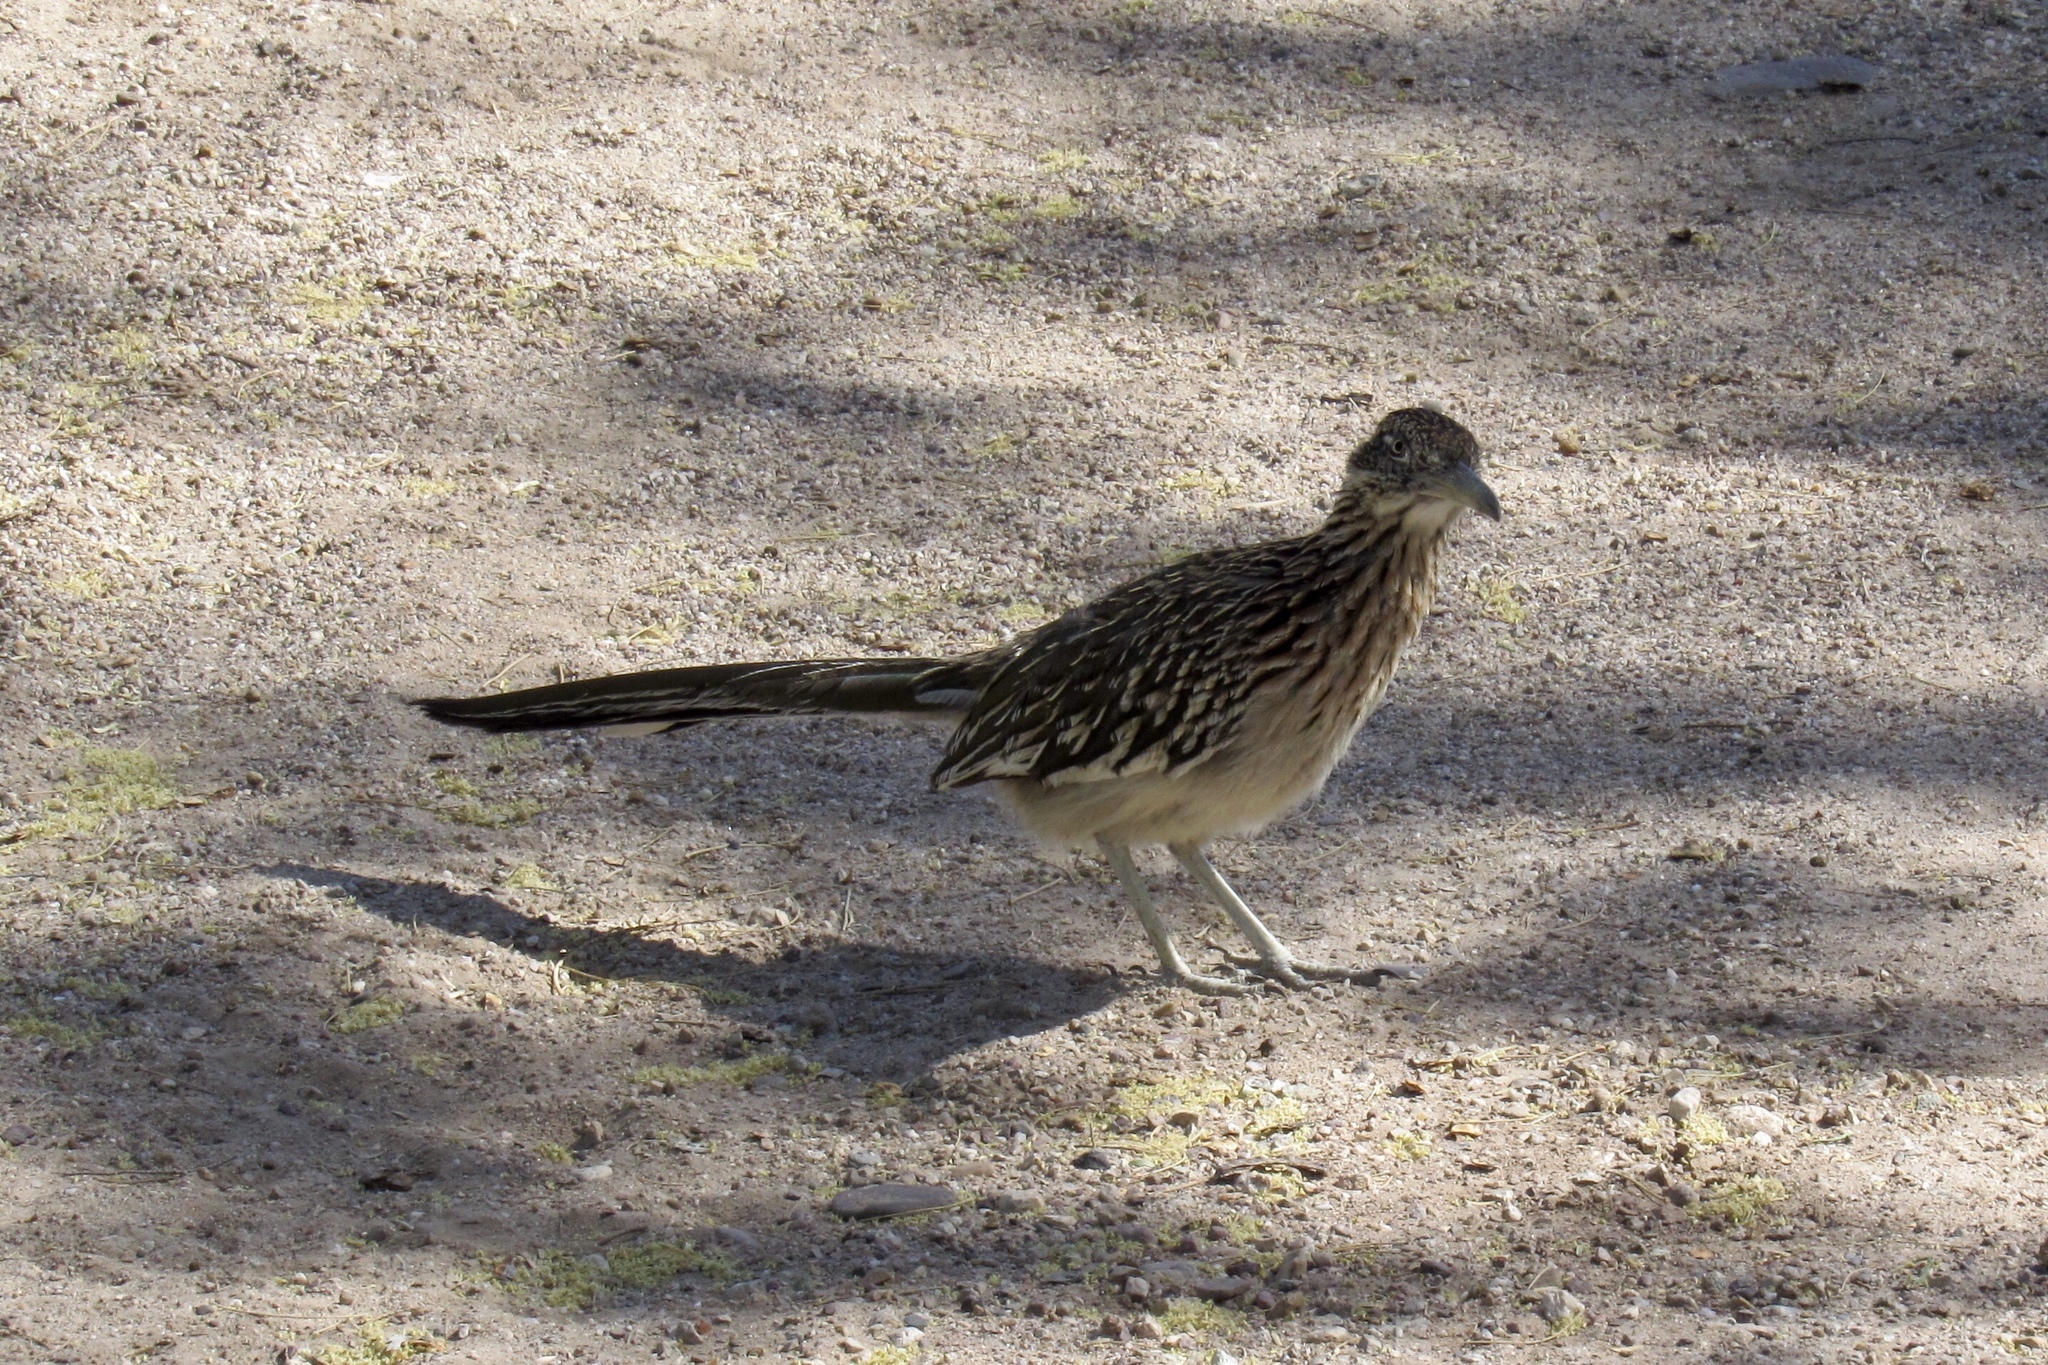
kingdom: Animalia
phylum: Chordata
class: Aves
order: Cuculiformes
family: Cuculidae
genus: Geococcyx
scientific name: Geococcyx californianus
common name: Greater roadrunner
